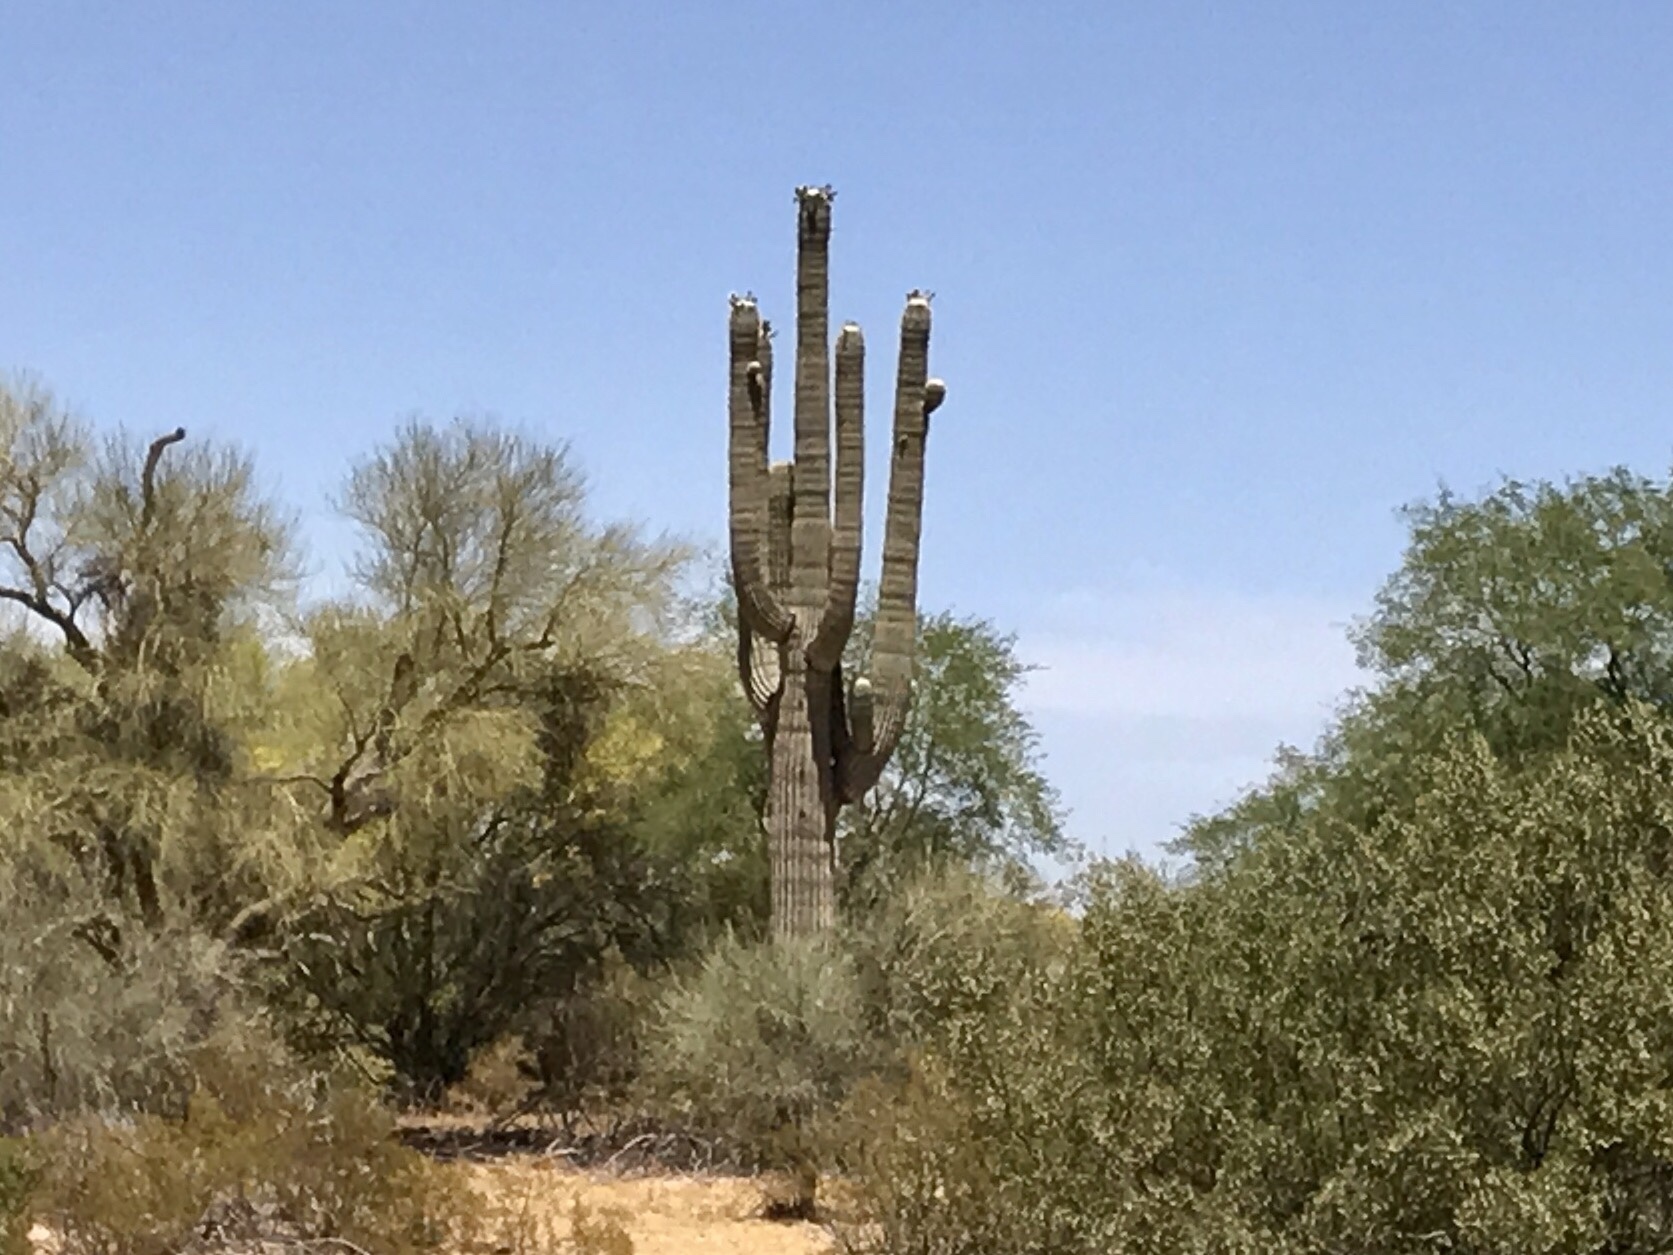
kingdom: Plantae
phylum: Tracheophyta
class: Magnoliopsida
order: Caryophyllales
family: Cactaceae
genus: Carnegiea
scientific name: Carnegiea gigantea
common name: Saguaro
